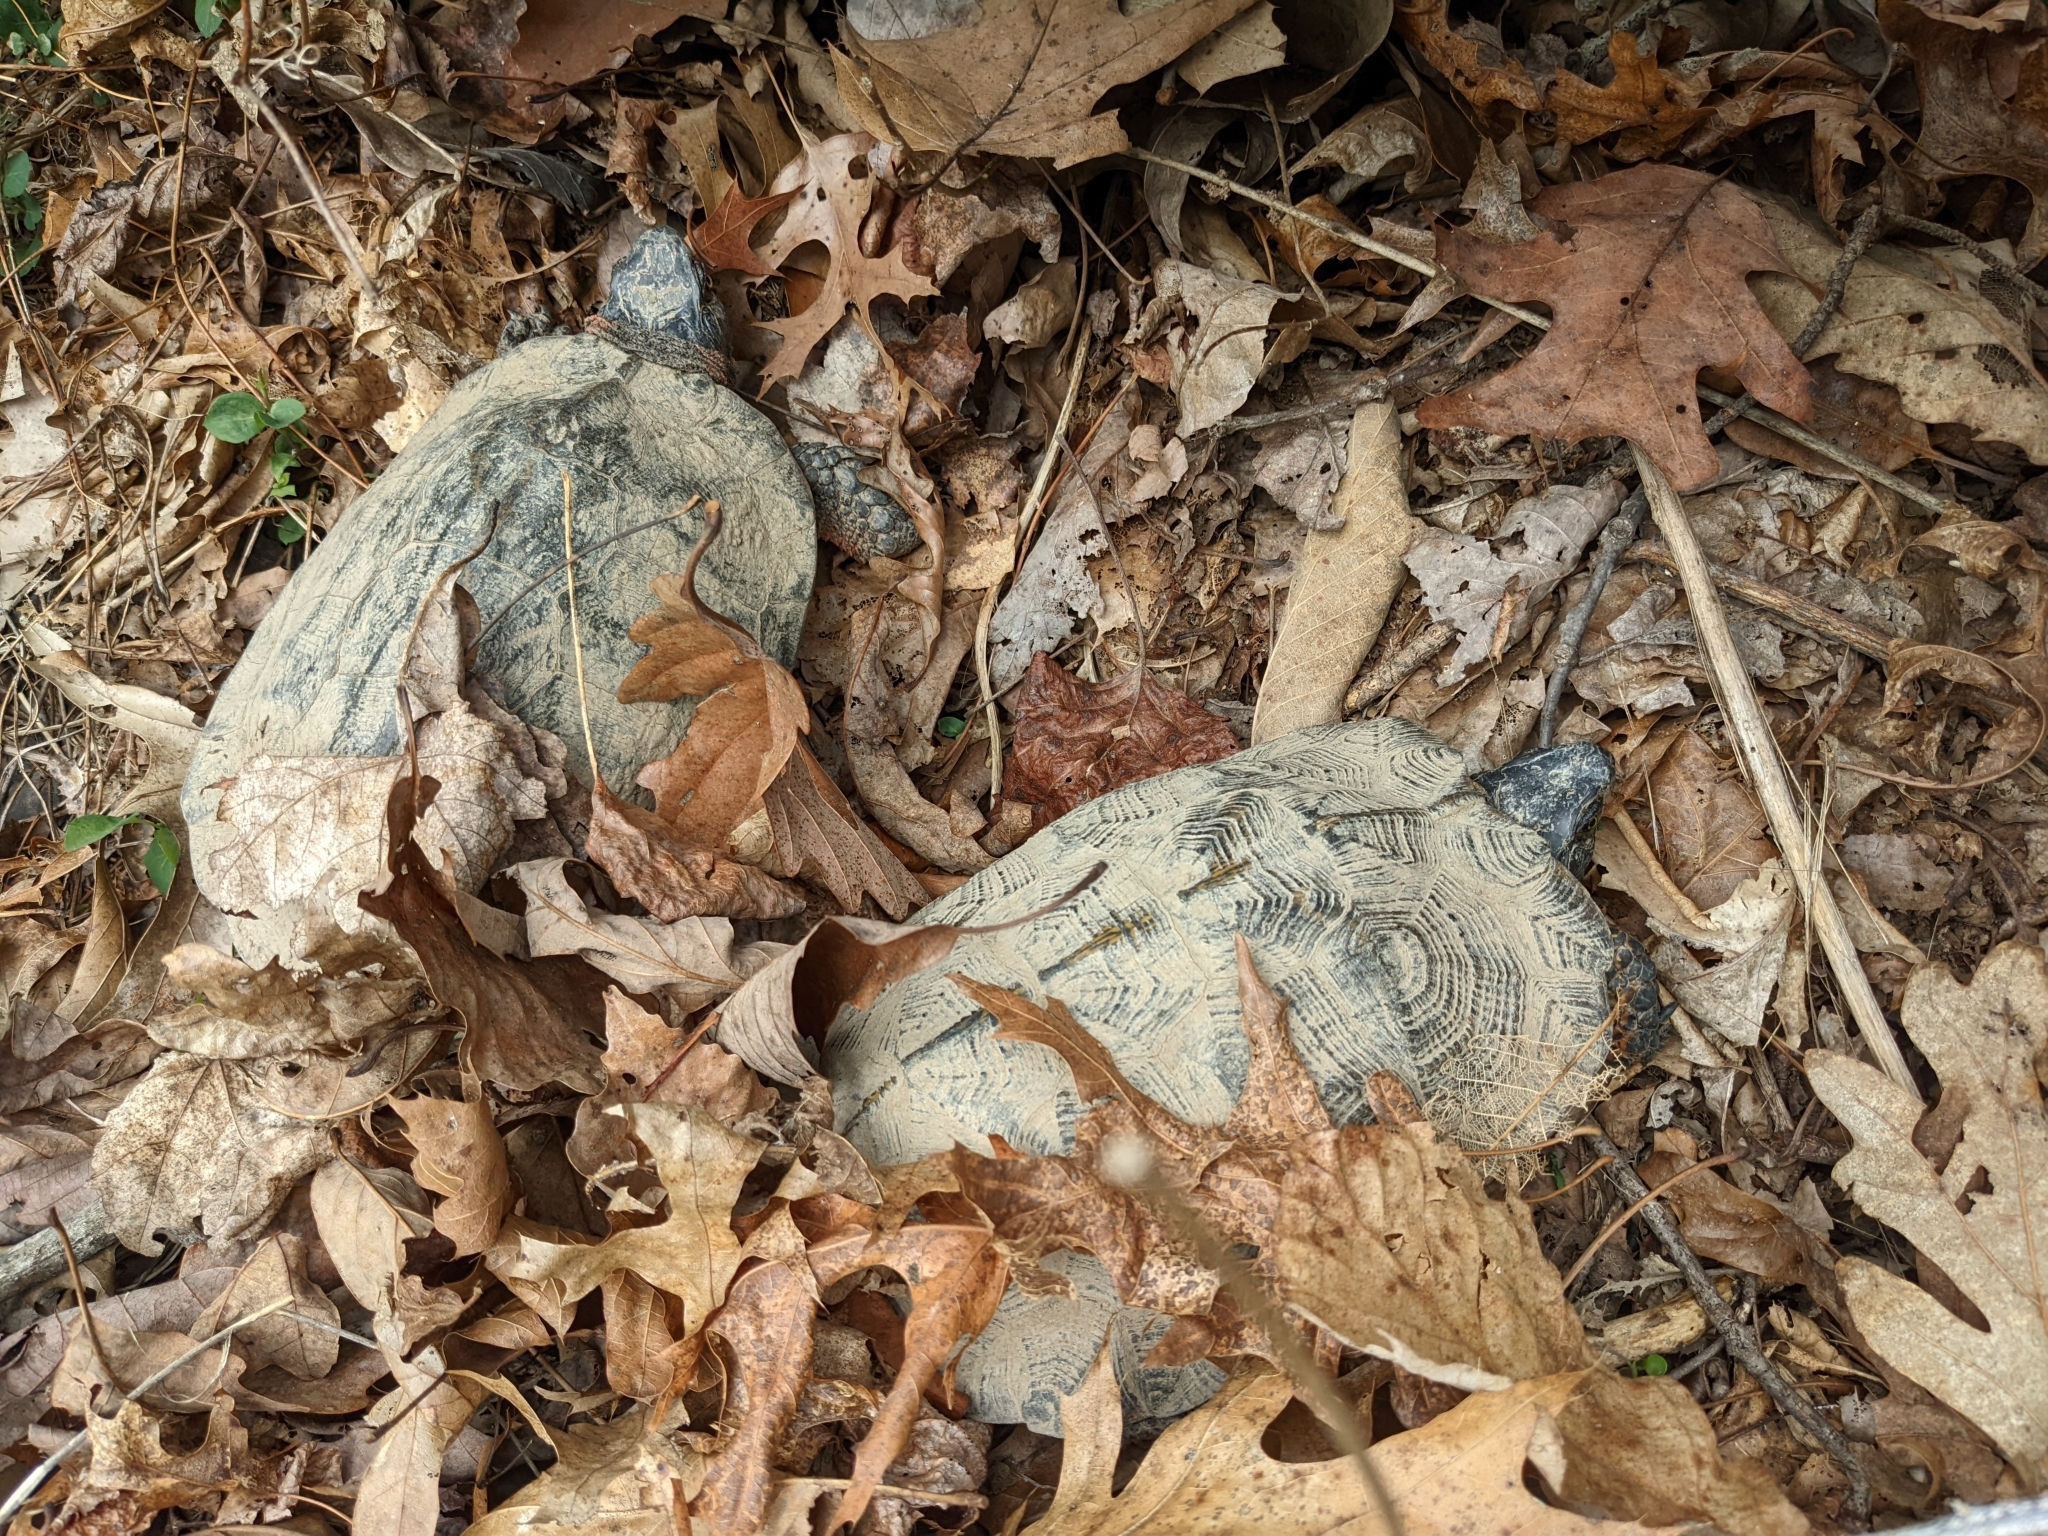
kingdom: Animalia
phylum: Chordata
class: Testudines
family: Emydidae
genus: Glyptemys
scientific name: Glyptemys insculpta
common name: Wood turtle
